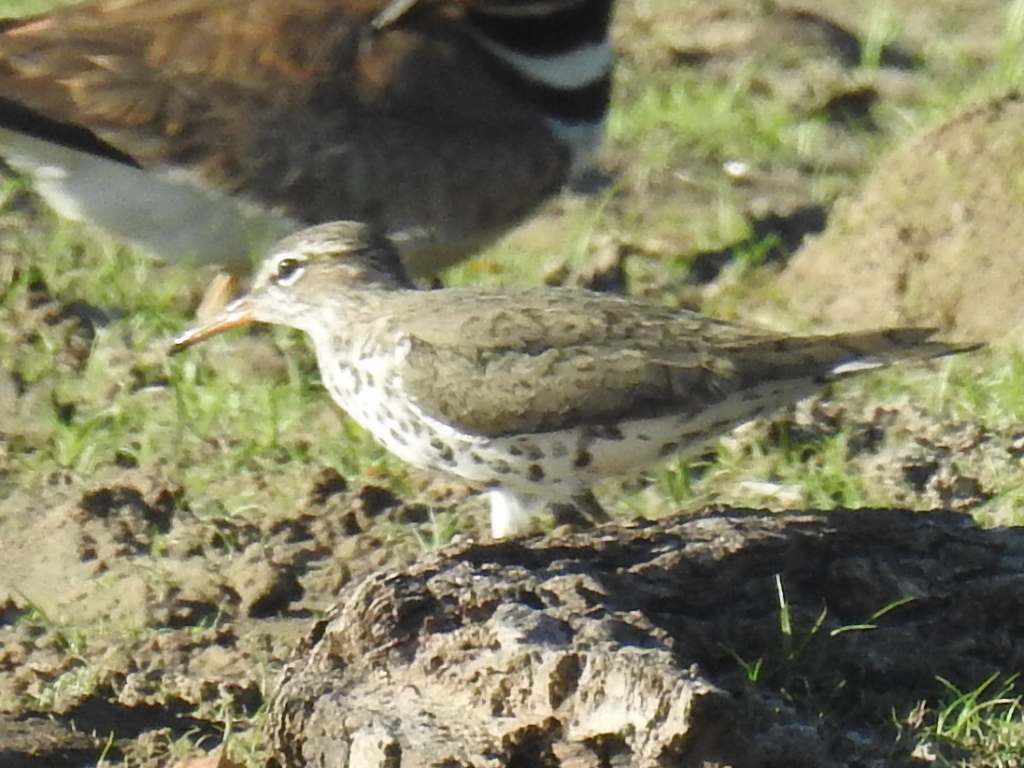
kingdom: Animalia
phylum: Chordata
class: Aves
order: Charadriiformes
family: Scolopacidae
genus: Actitis
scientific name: Actitis macularius
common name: Spotted sandpiper
